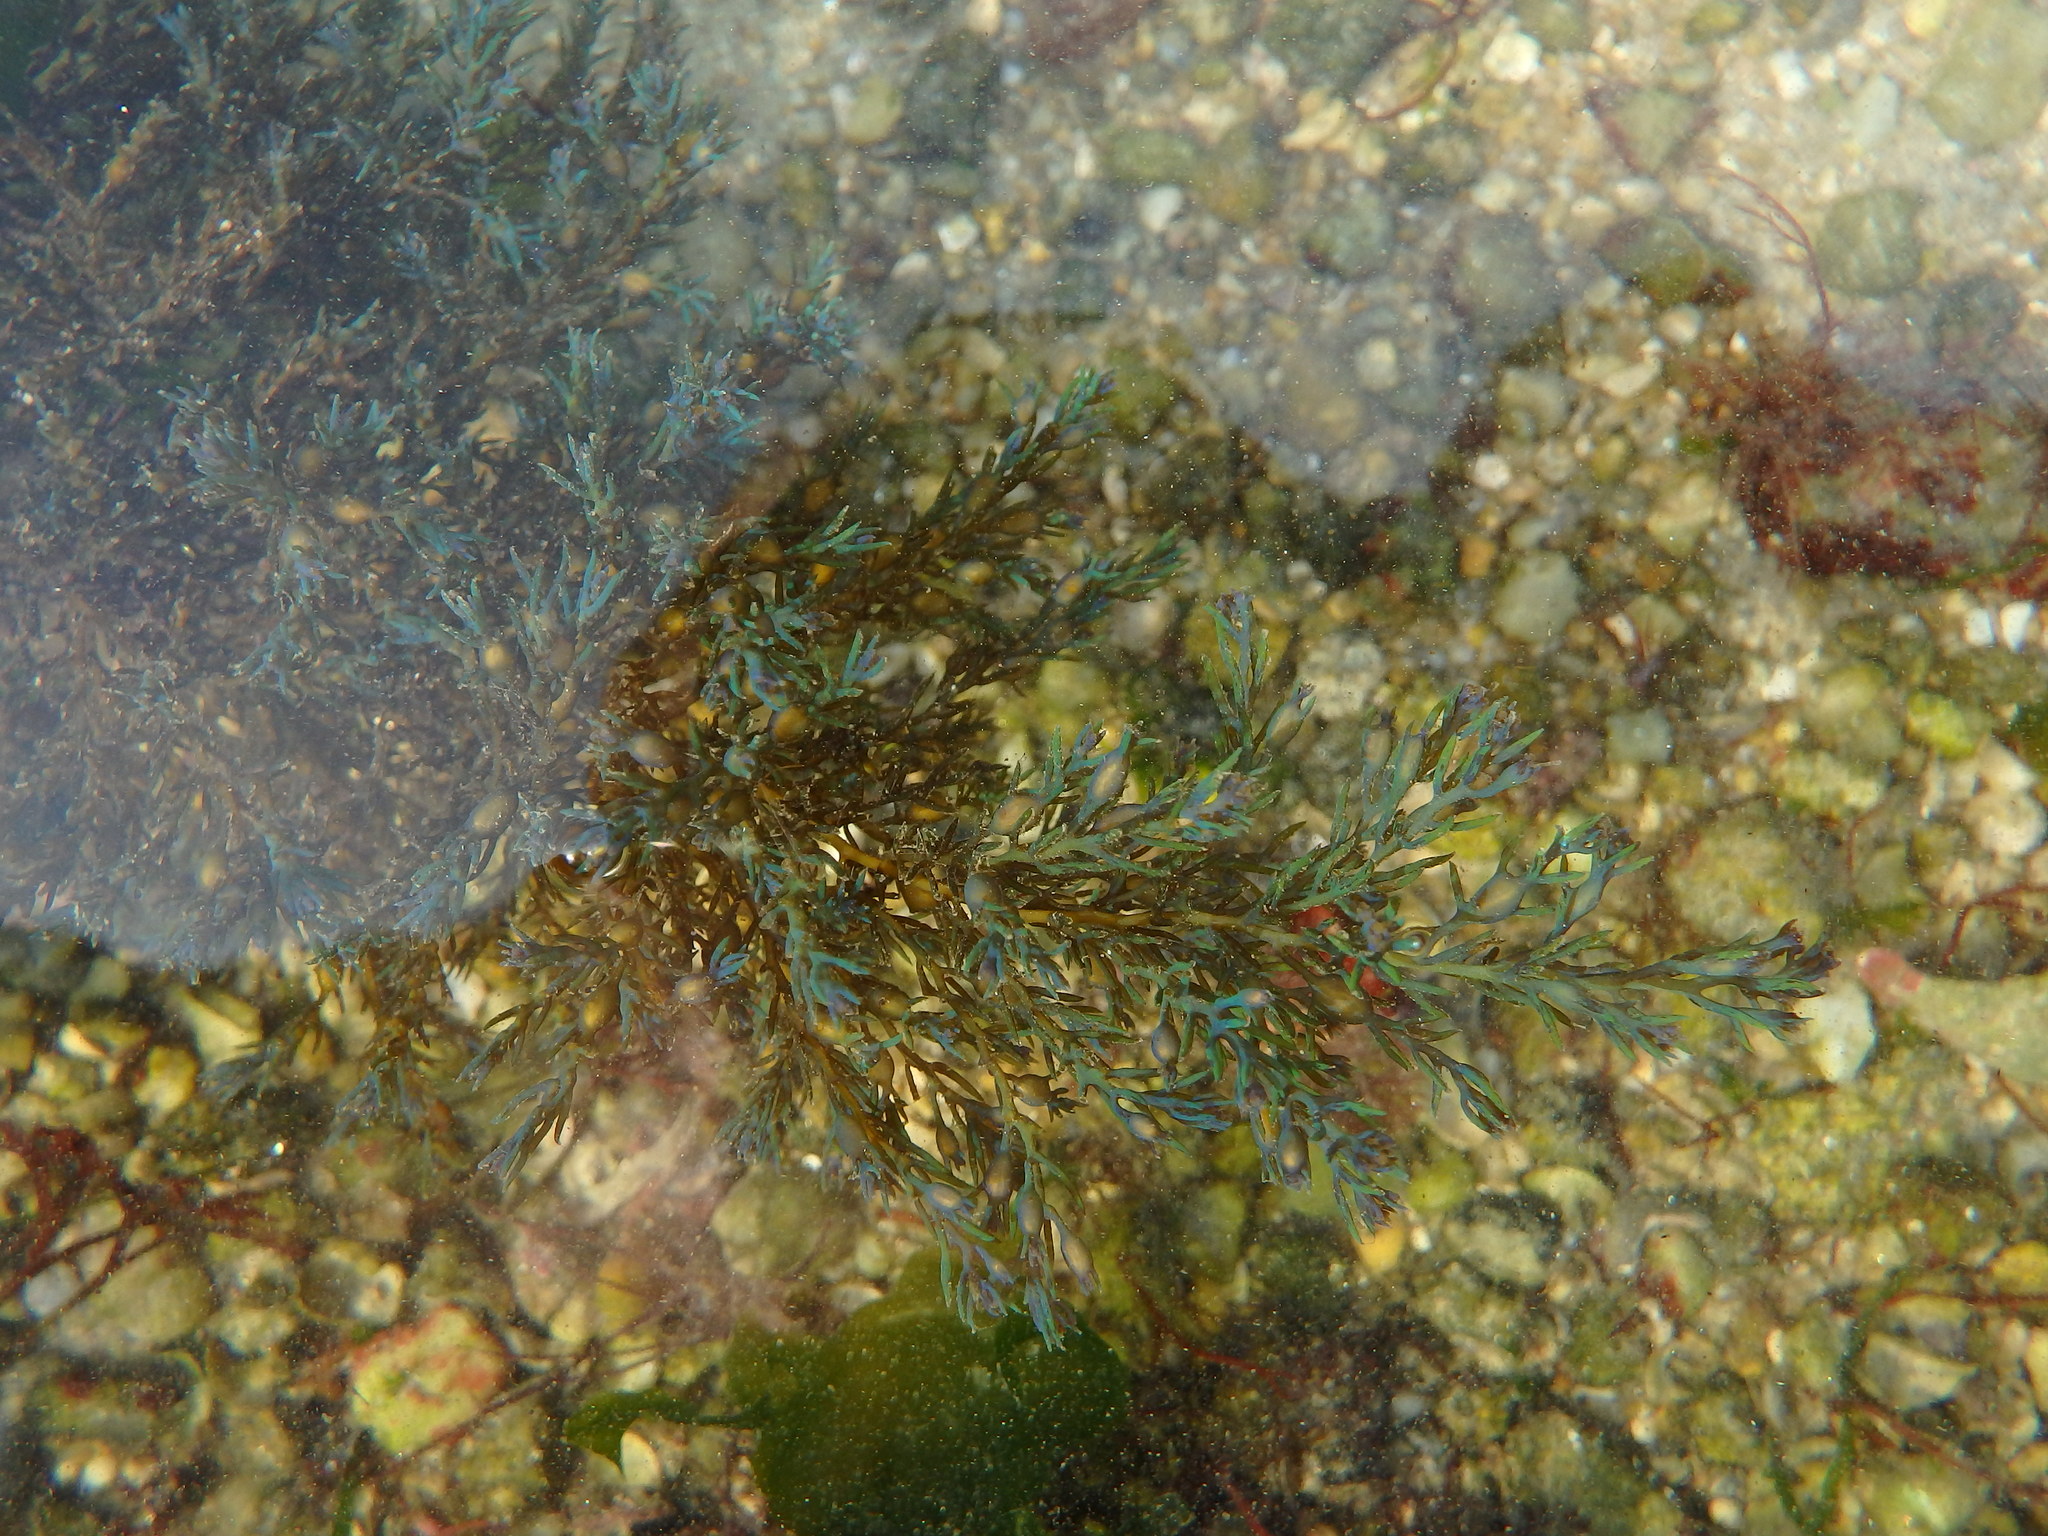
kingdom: Chromista
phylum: Ochrophyta
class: Phaeophyceae
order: Fucales
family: Sargassaceae
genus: Cystoseira
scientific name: Cystoseira Ericaria selaginoides
